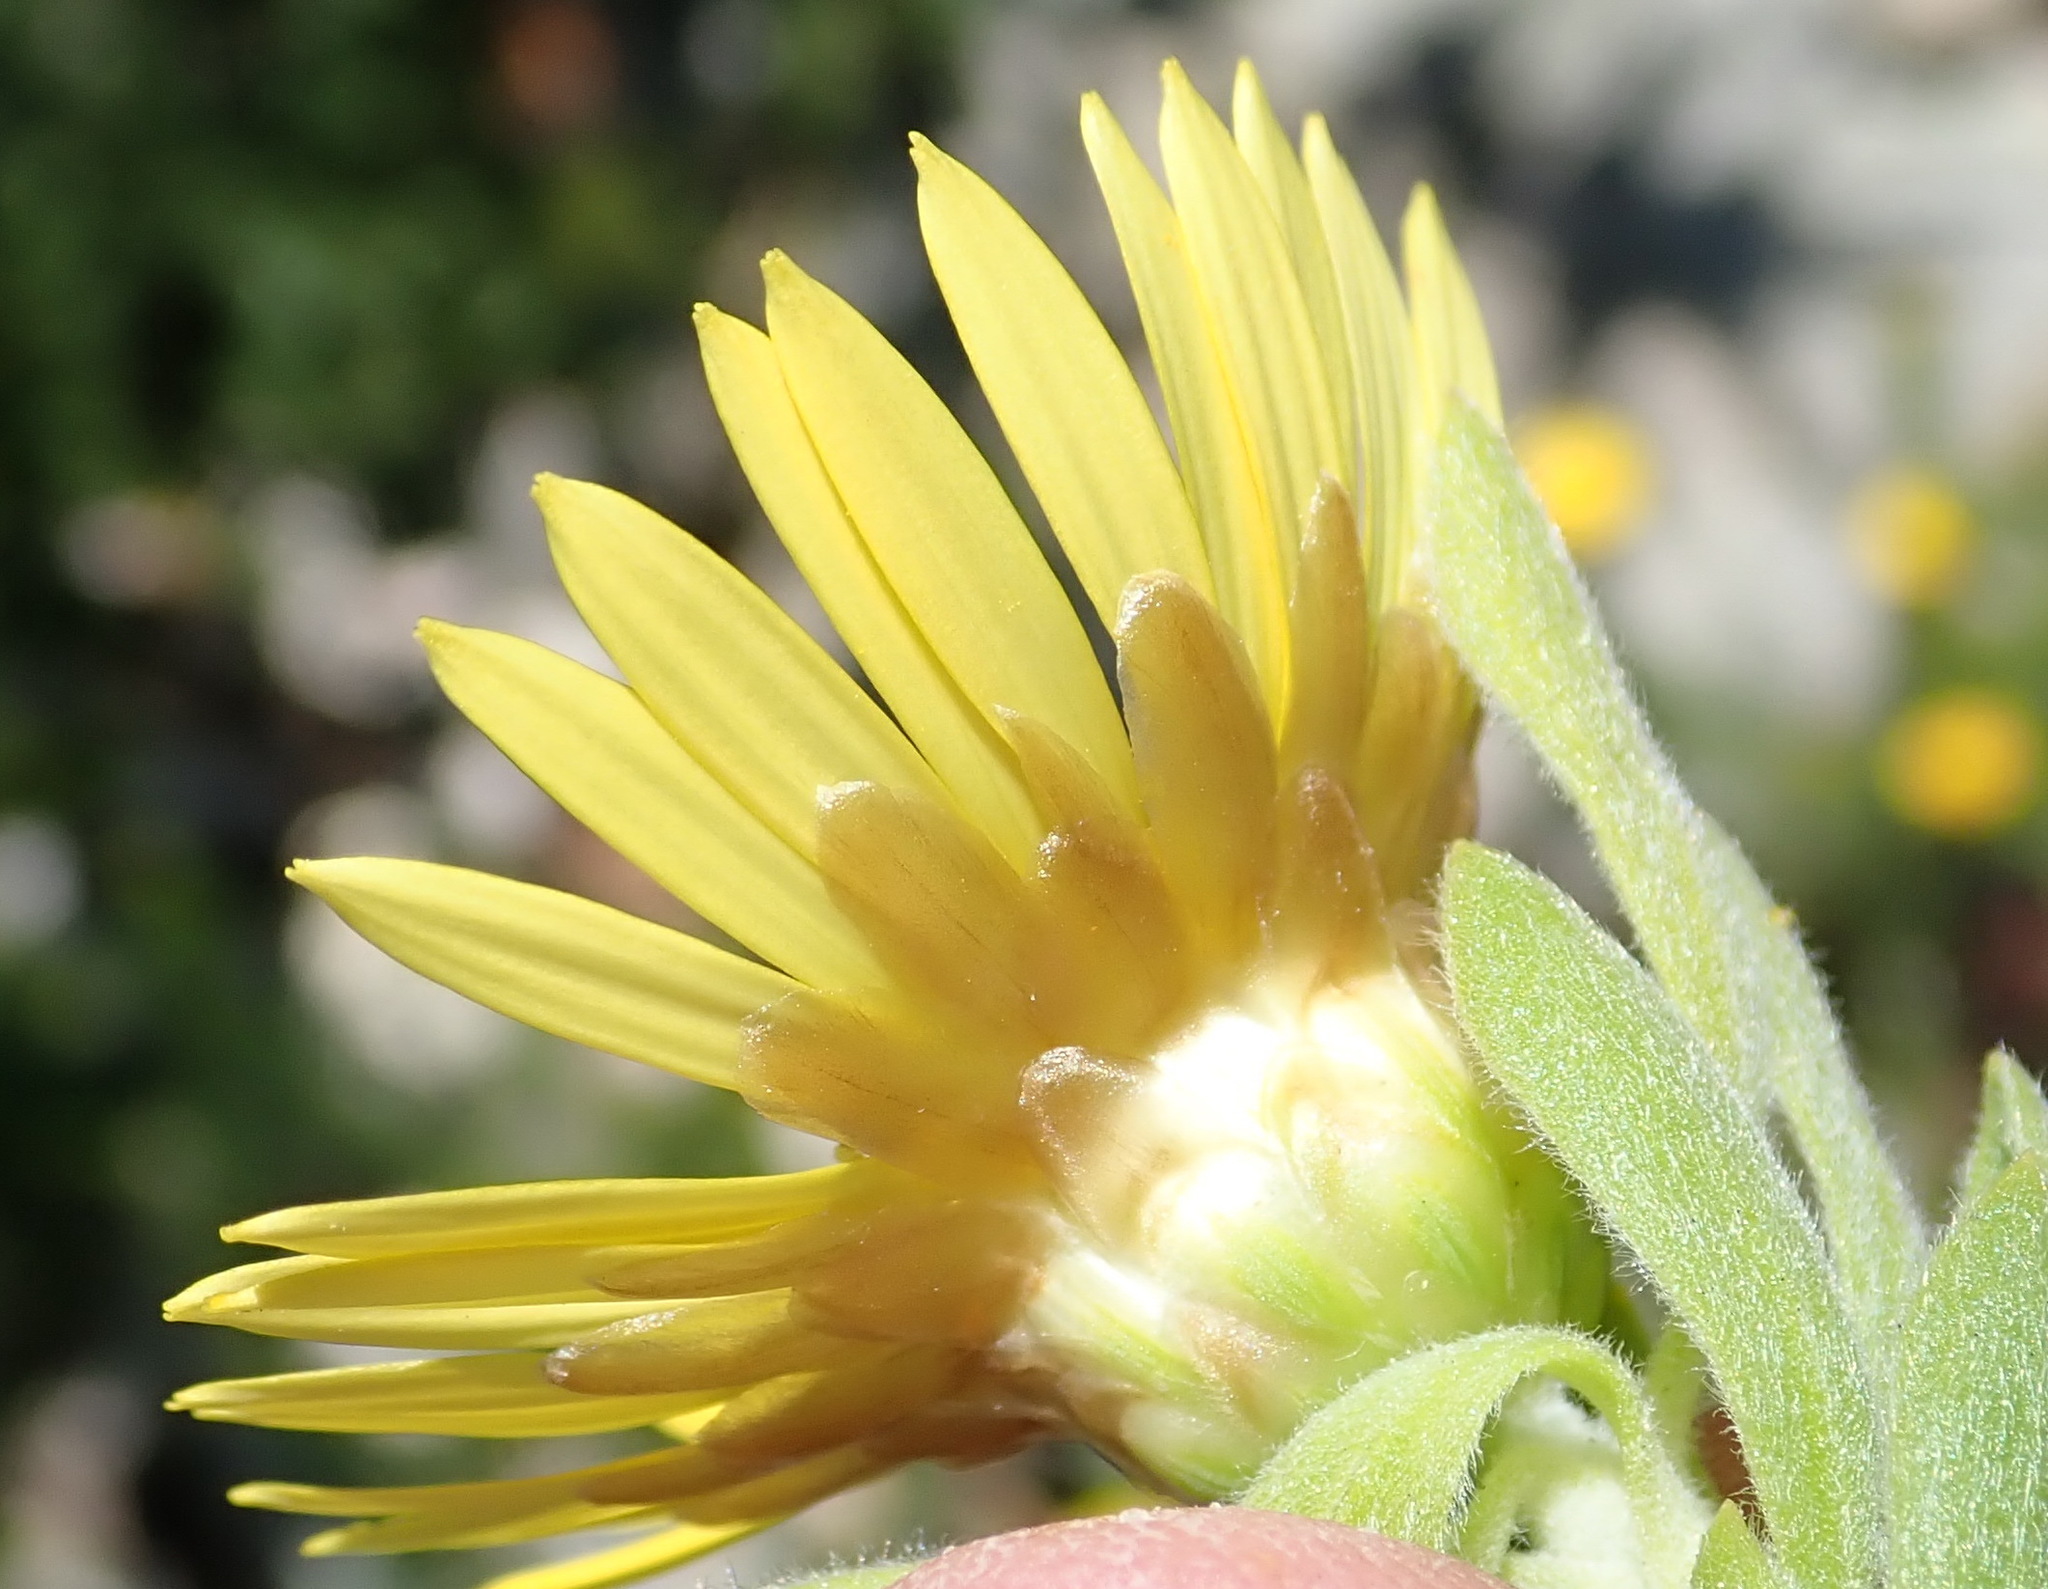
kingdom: Plantae
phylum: Tracheophyta
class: Magnoliopsida
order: Asterales
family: Asteraceae
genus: Oedera
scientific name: Oedera calycina
